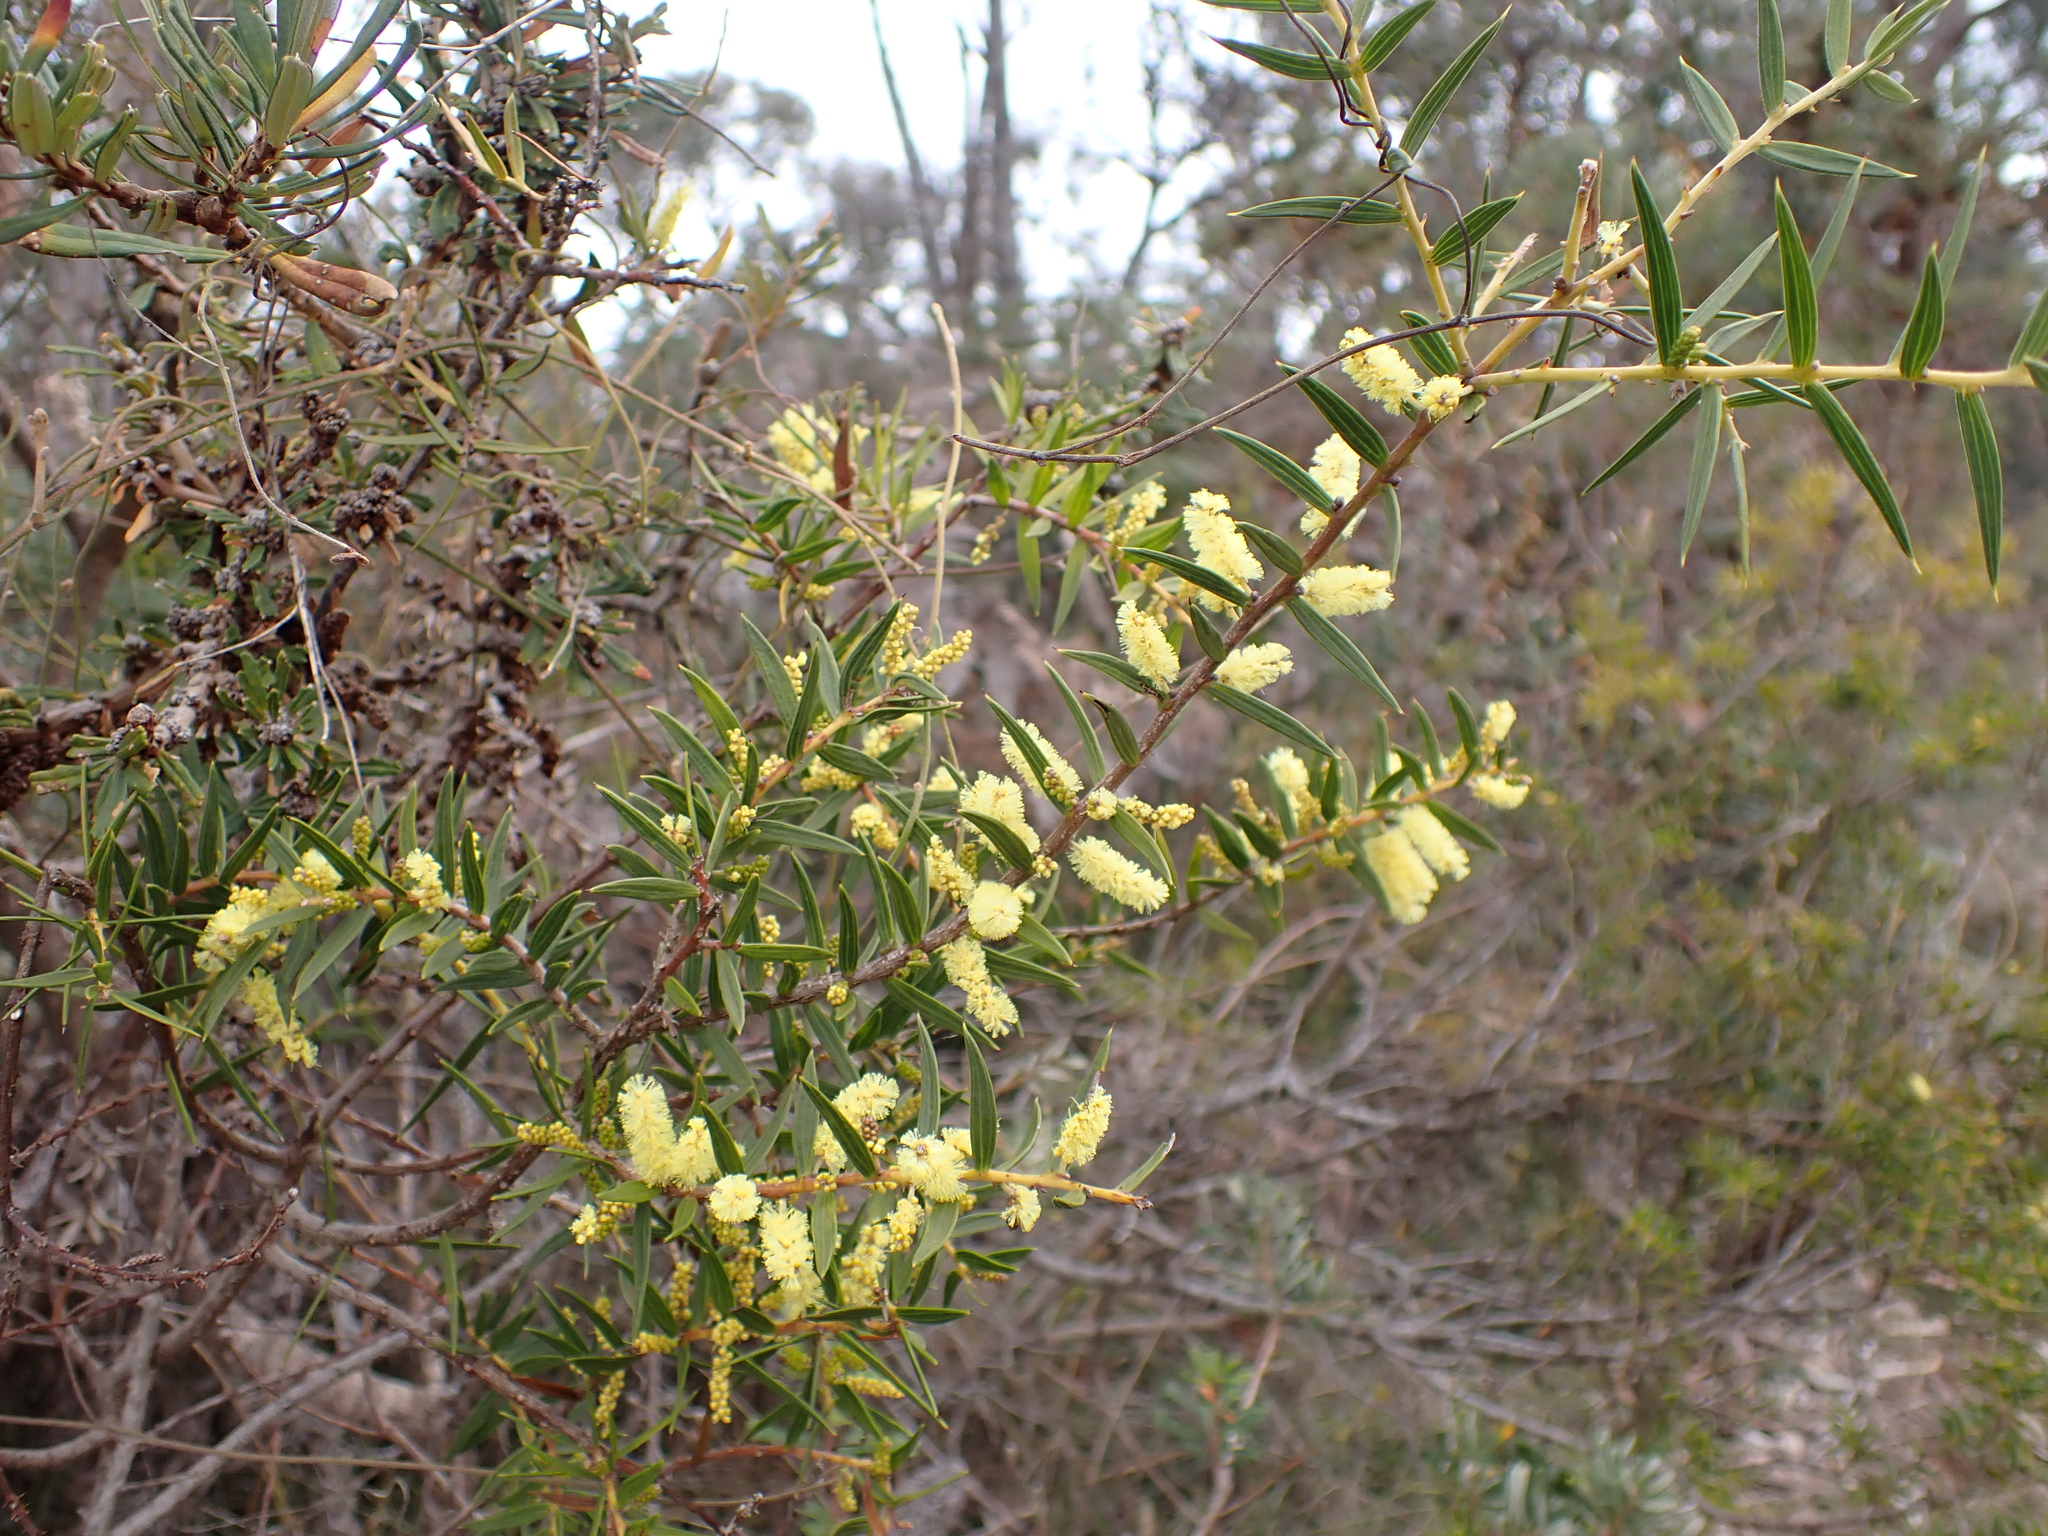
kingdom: Plantae
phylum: Tracheophyta
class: Magnoliopsida
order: Fabales
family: Fabaceae
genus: Acacia
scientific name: Acacia oxycedrus
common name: Spike wattle
